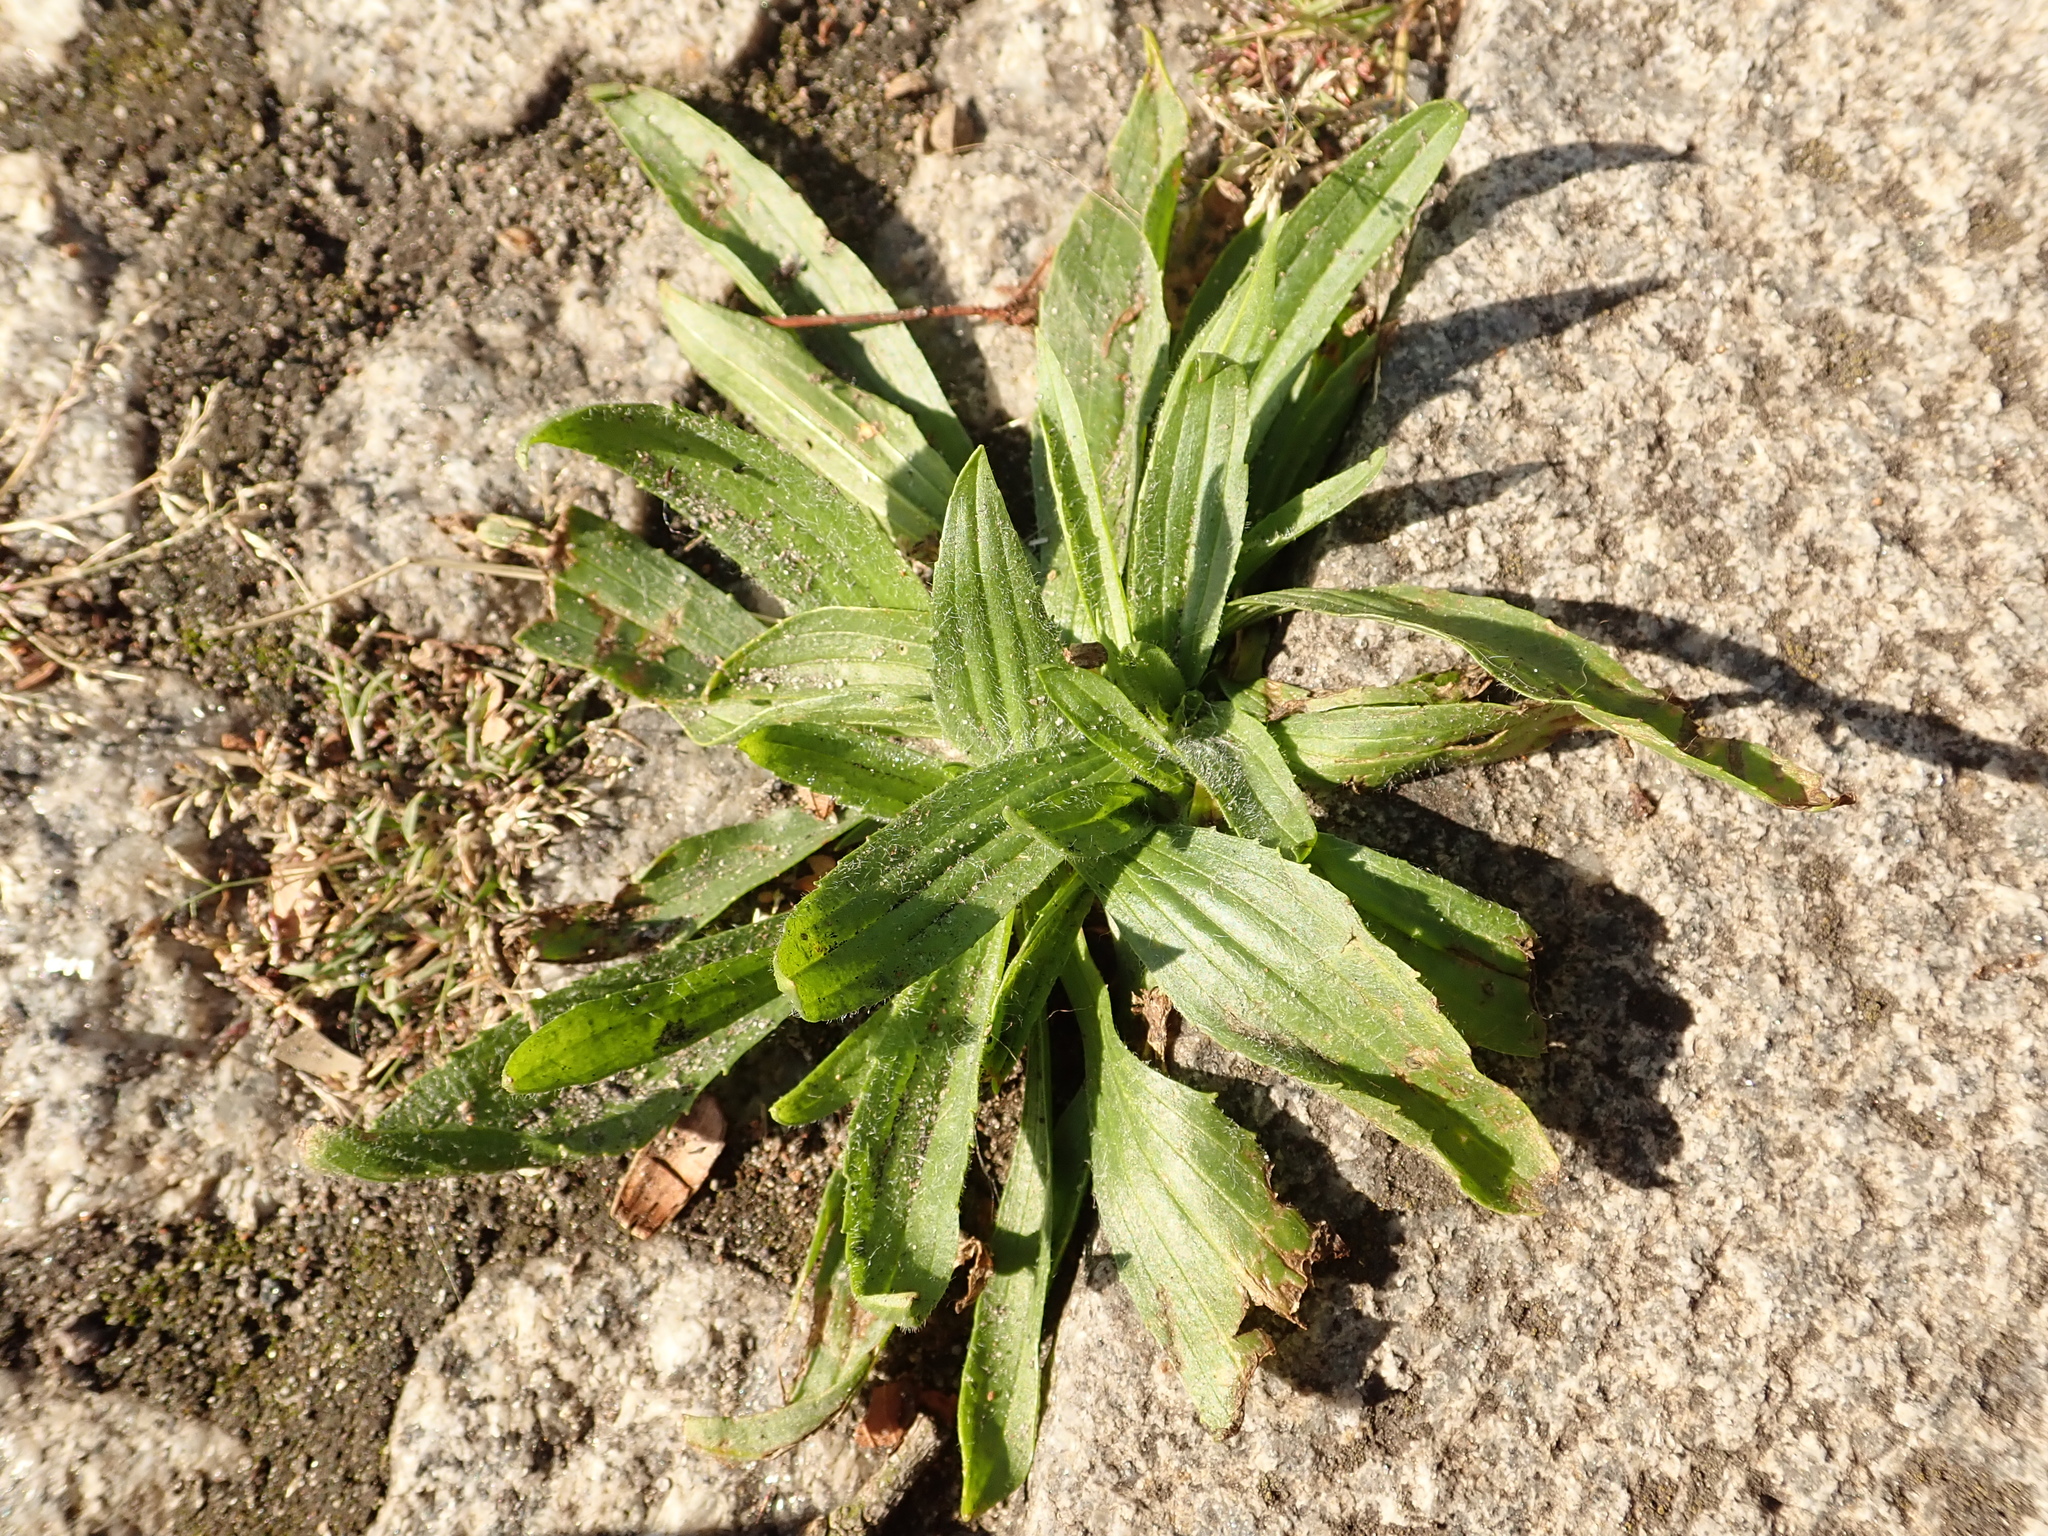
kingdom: Plantae
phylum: Tracheophyta
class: Magnoliopsida
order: Lamiales
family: Plantaginaceae
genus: Plantago
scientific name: Plantago lanceolata
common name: Ribwort plantain
